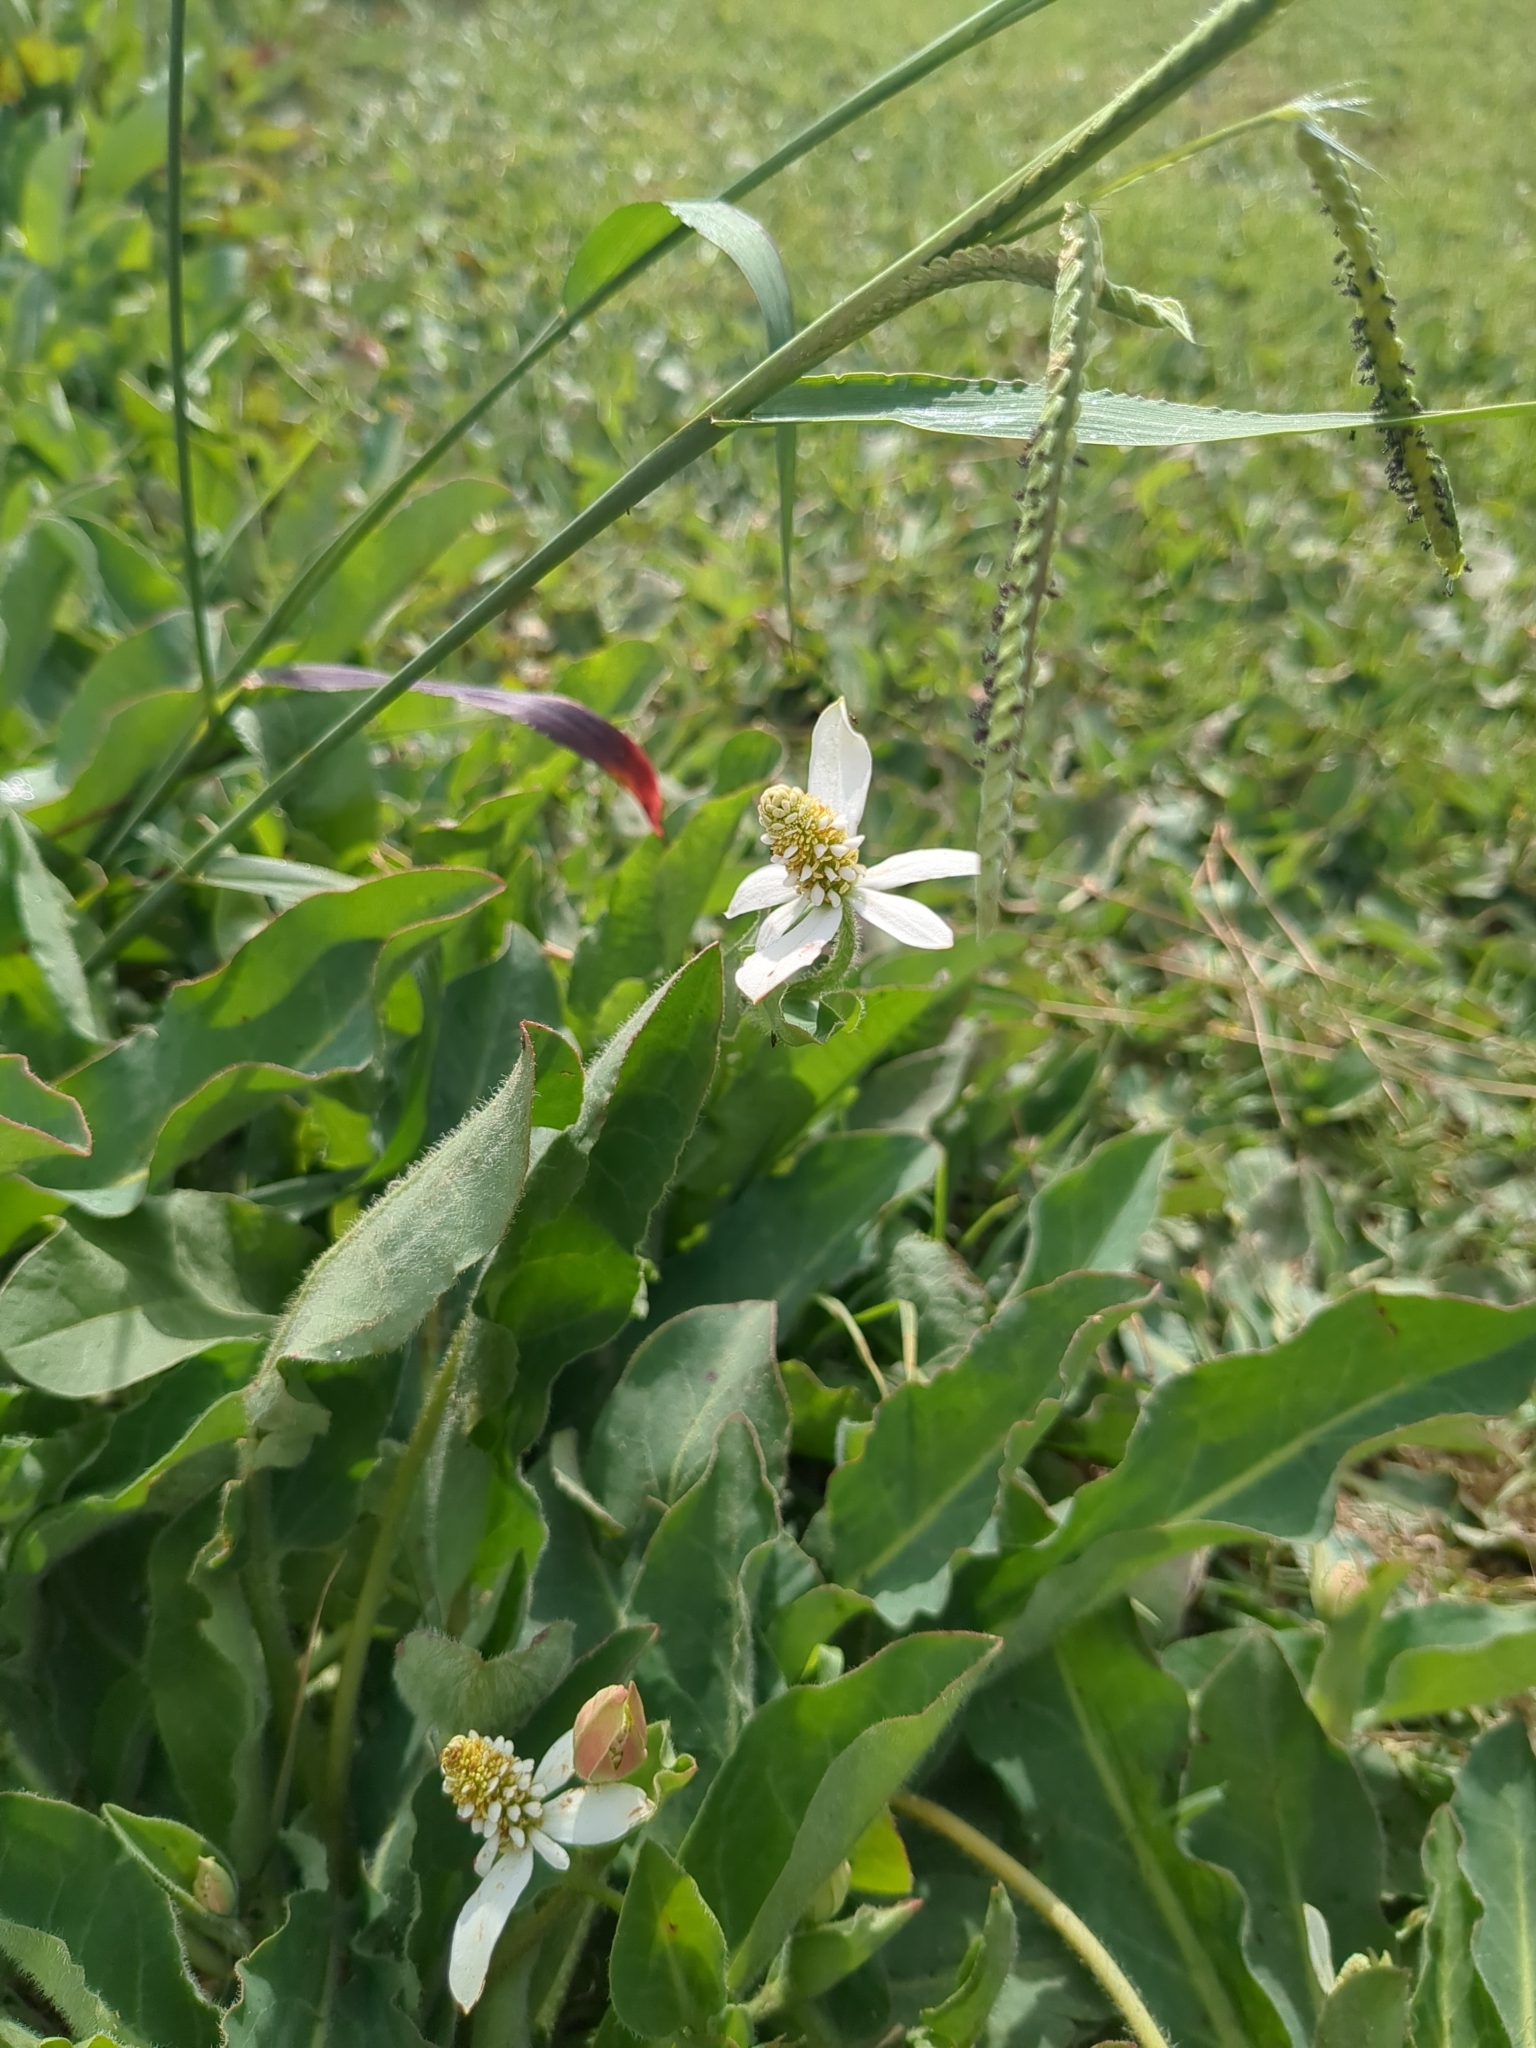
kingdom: Plantae
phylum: Tracheophyta
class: Magnoliopsida
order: Piperales
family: Saururaceae
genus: Anemopsis
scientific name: Anemopsis californica
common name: Apache-beads
